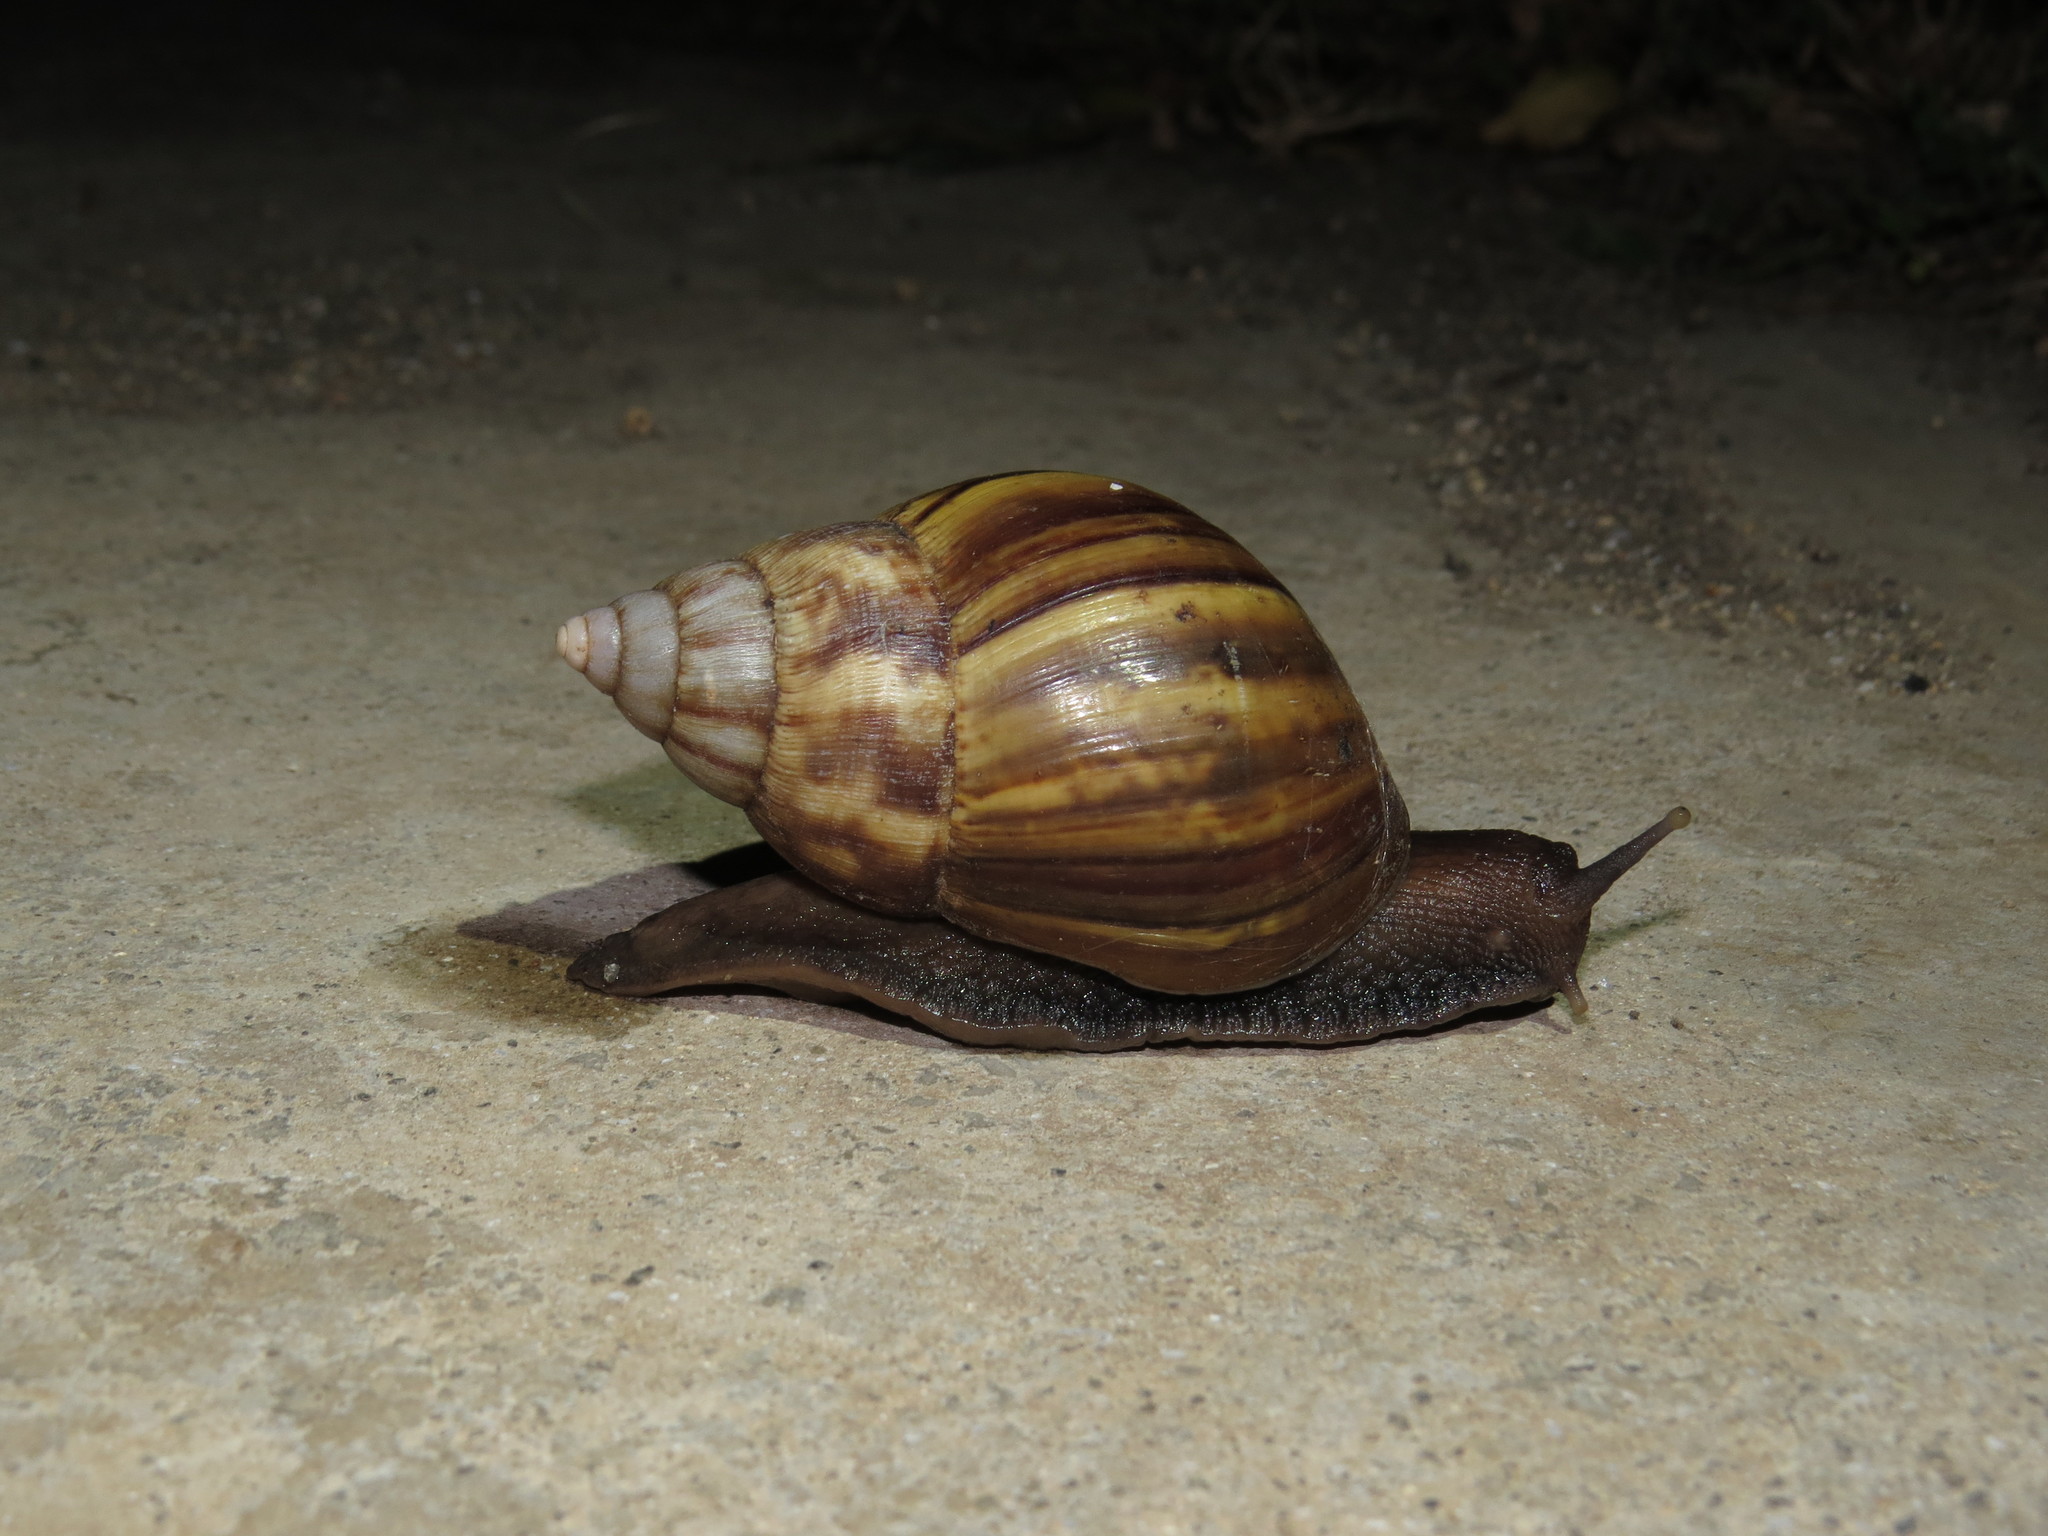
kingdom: Animalia
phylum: Mollusca
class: Gastropoda
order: Stylommatophora
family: Achatinidae
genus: Lissachatina
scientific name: Lissachatina fulica
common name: Giant african snail
